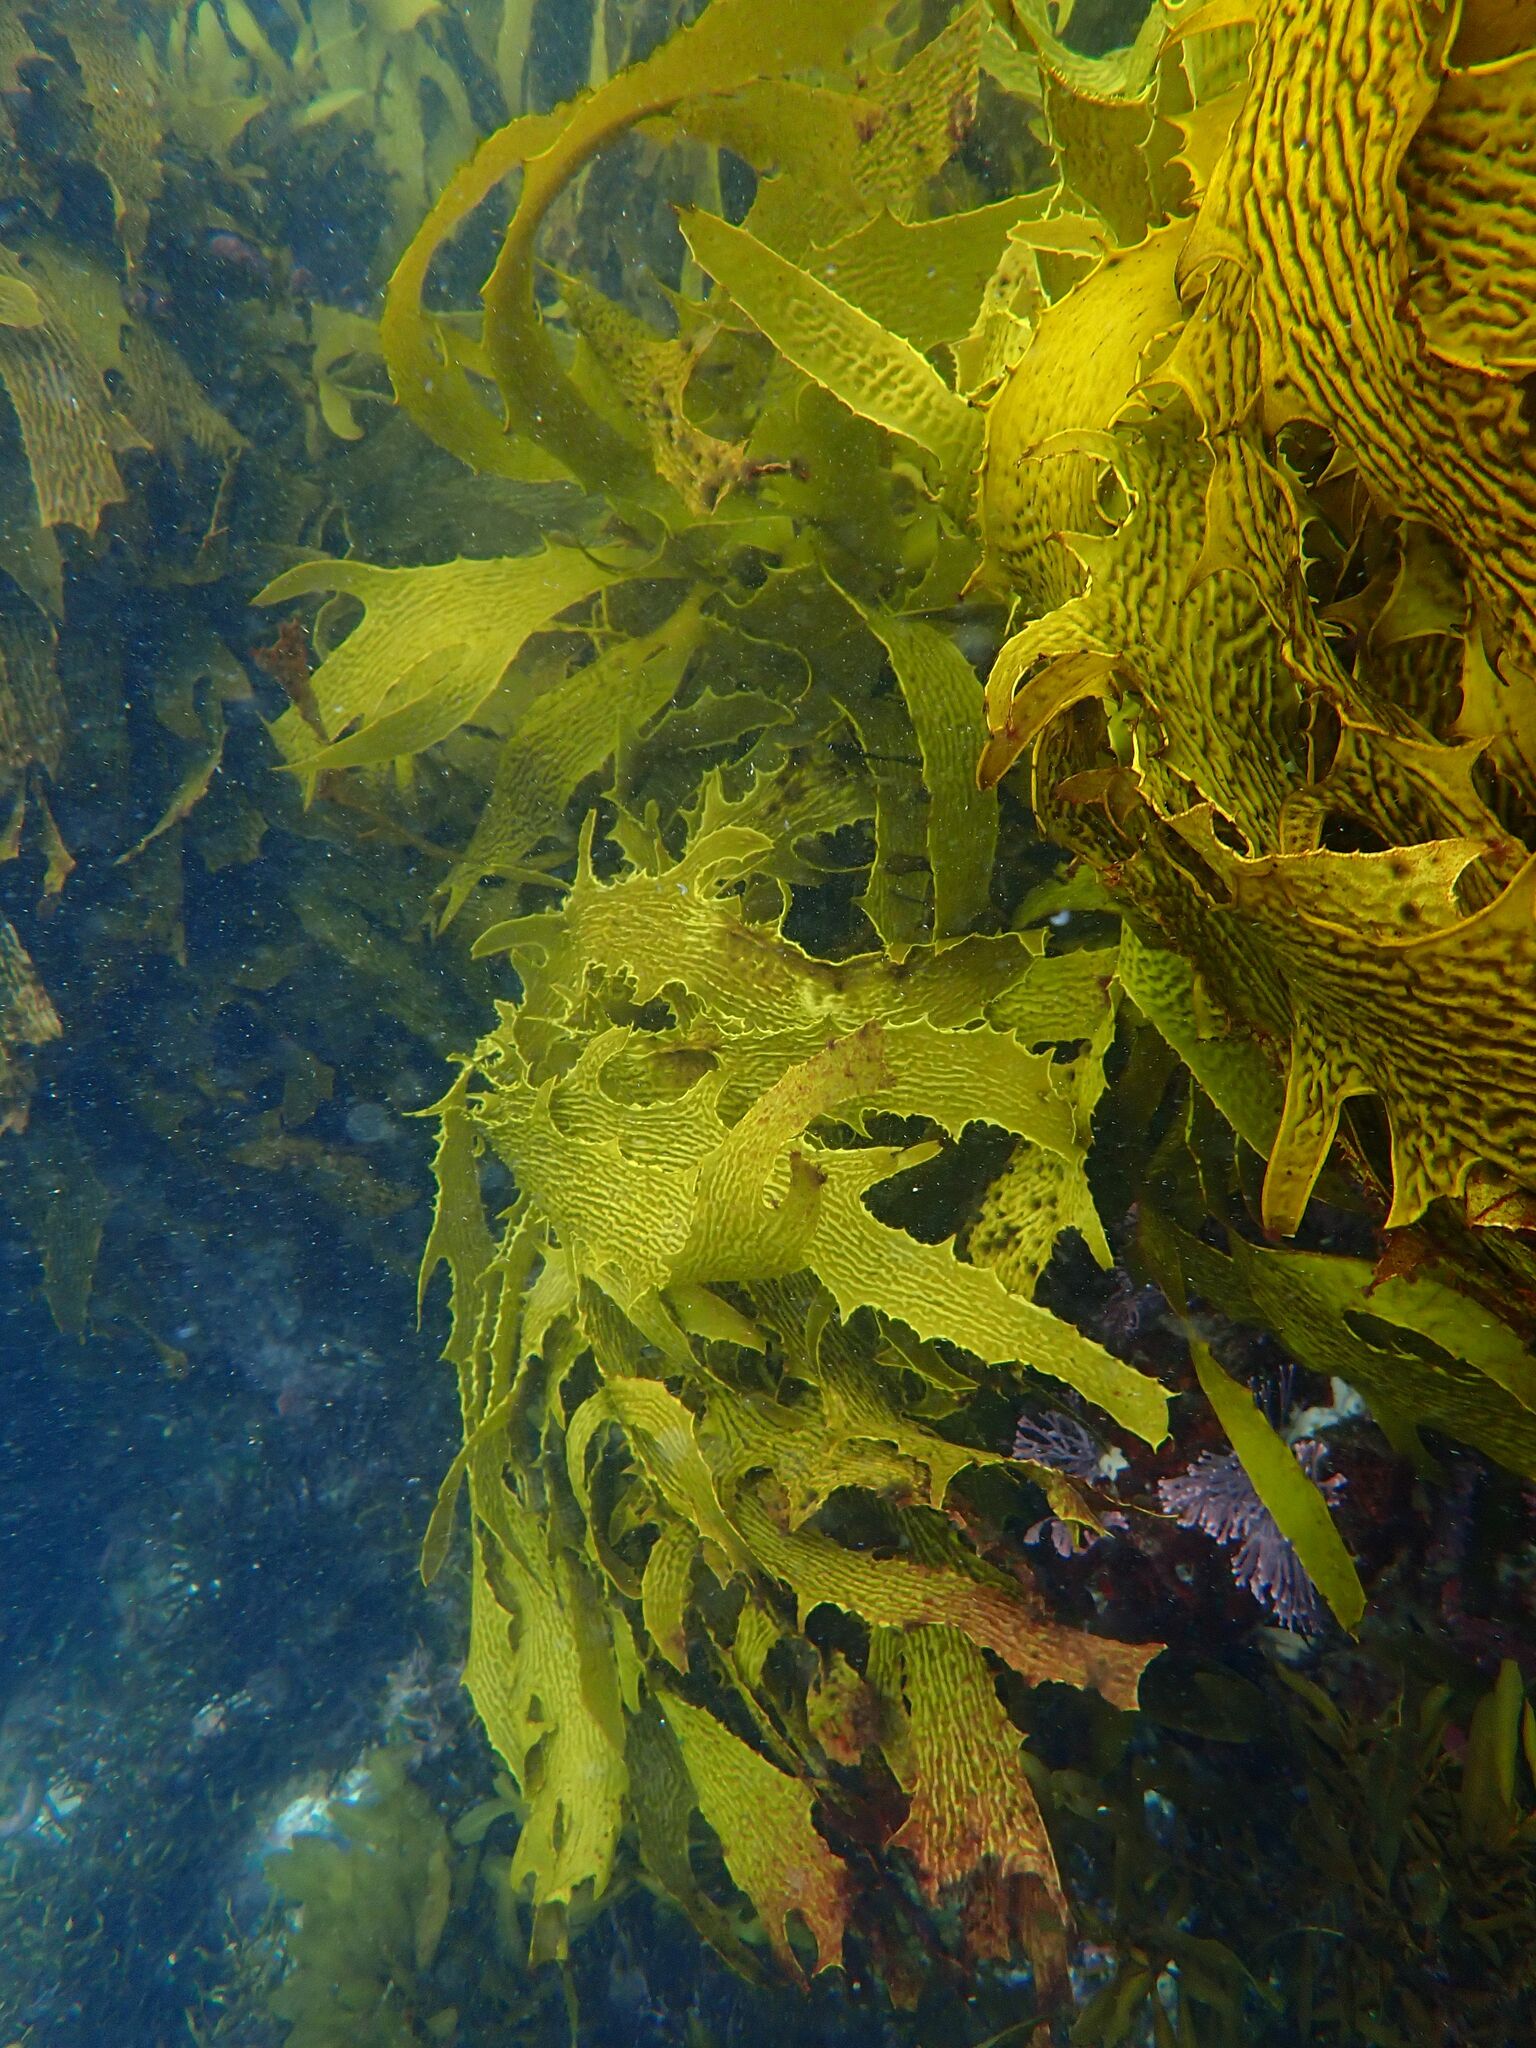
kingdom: Chromista
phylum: Ochrophyta
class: Phaeophyceae
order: Laminariales
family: Lessoniaceae
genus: Ecklonia
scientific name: Ecklonia radiata
